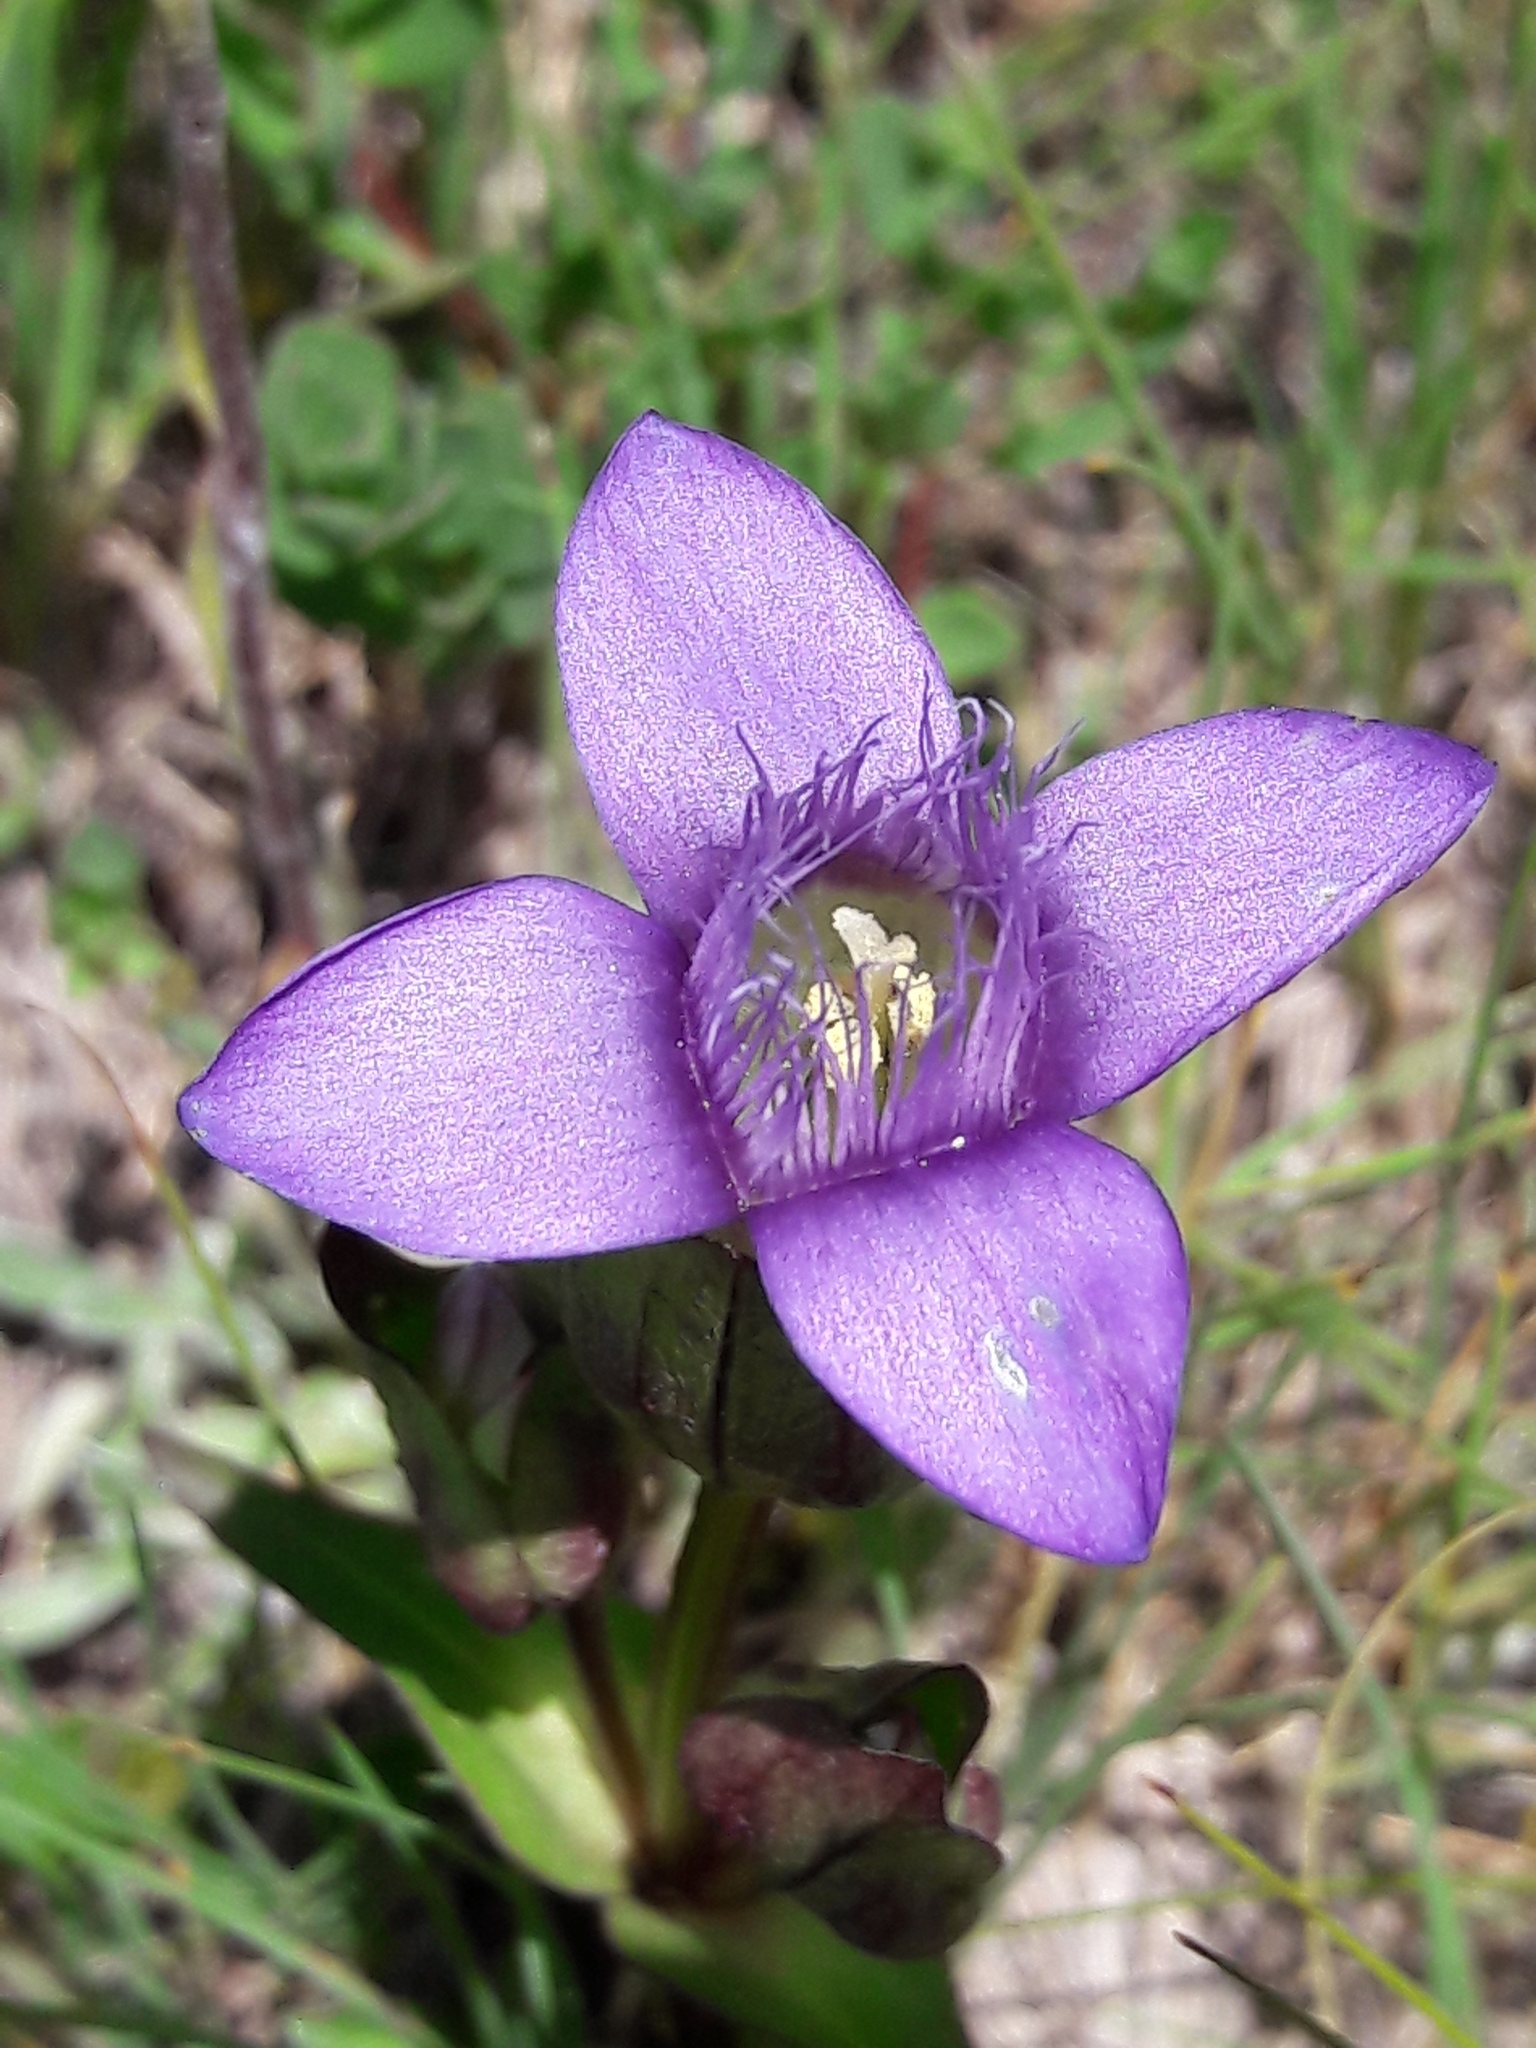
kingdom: Plantae
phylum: Tracheophyta
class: Magnoliopsida
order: Gentianales
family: Gentianaceae
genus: Gentianella
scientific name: Gentianella campestris
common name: Field gentian
